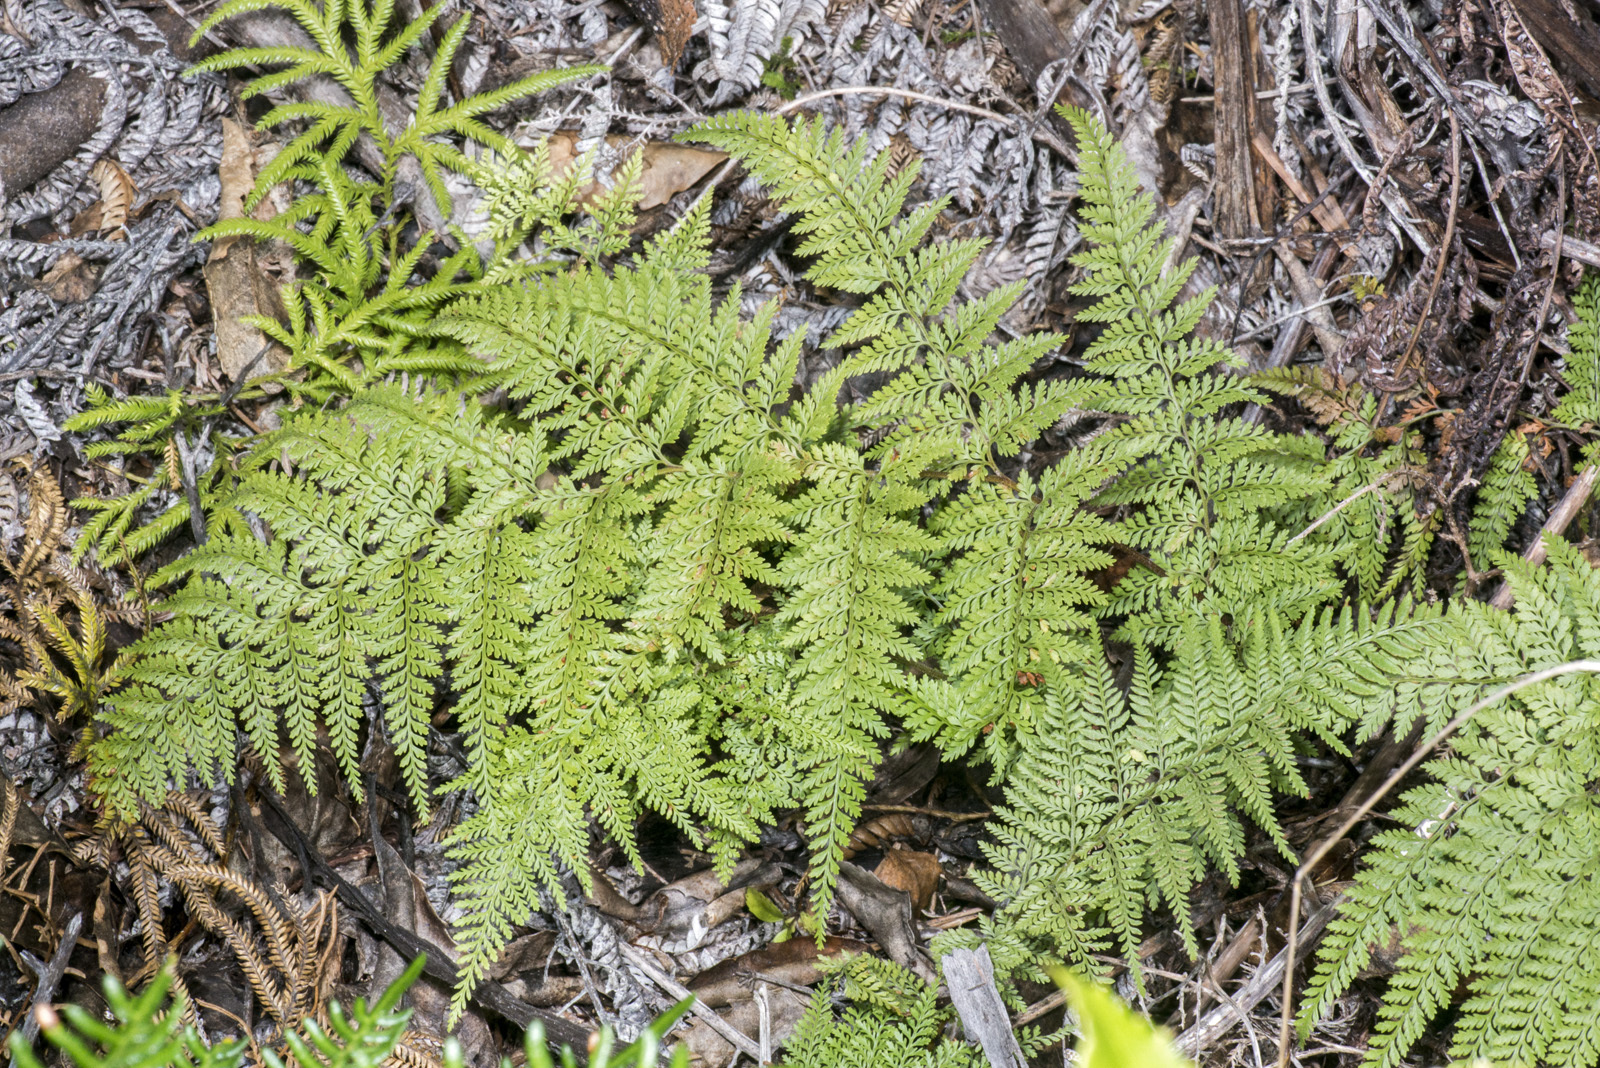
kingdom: Plantae
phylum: Tracheophyta
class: Polypodiopsida
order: Polypodiales
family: Dennstaedtiaceae
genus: Paesia
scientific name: Paesia scaberula
